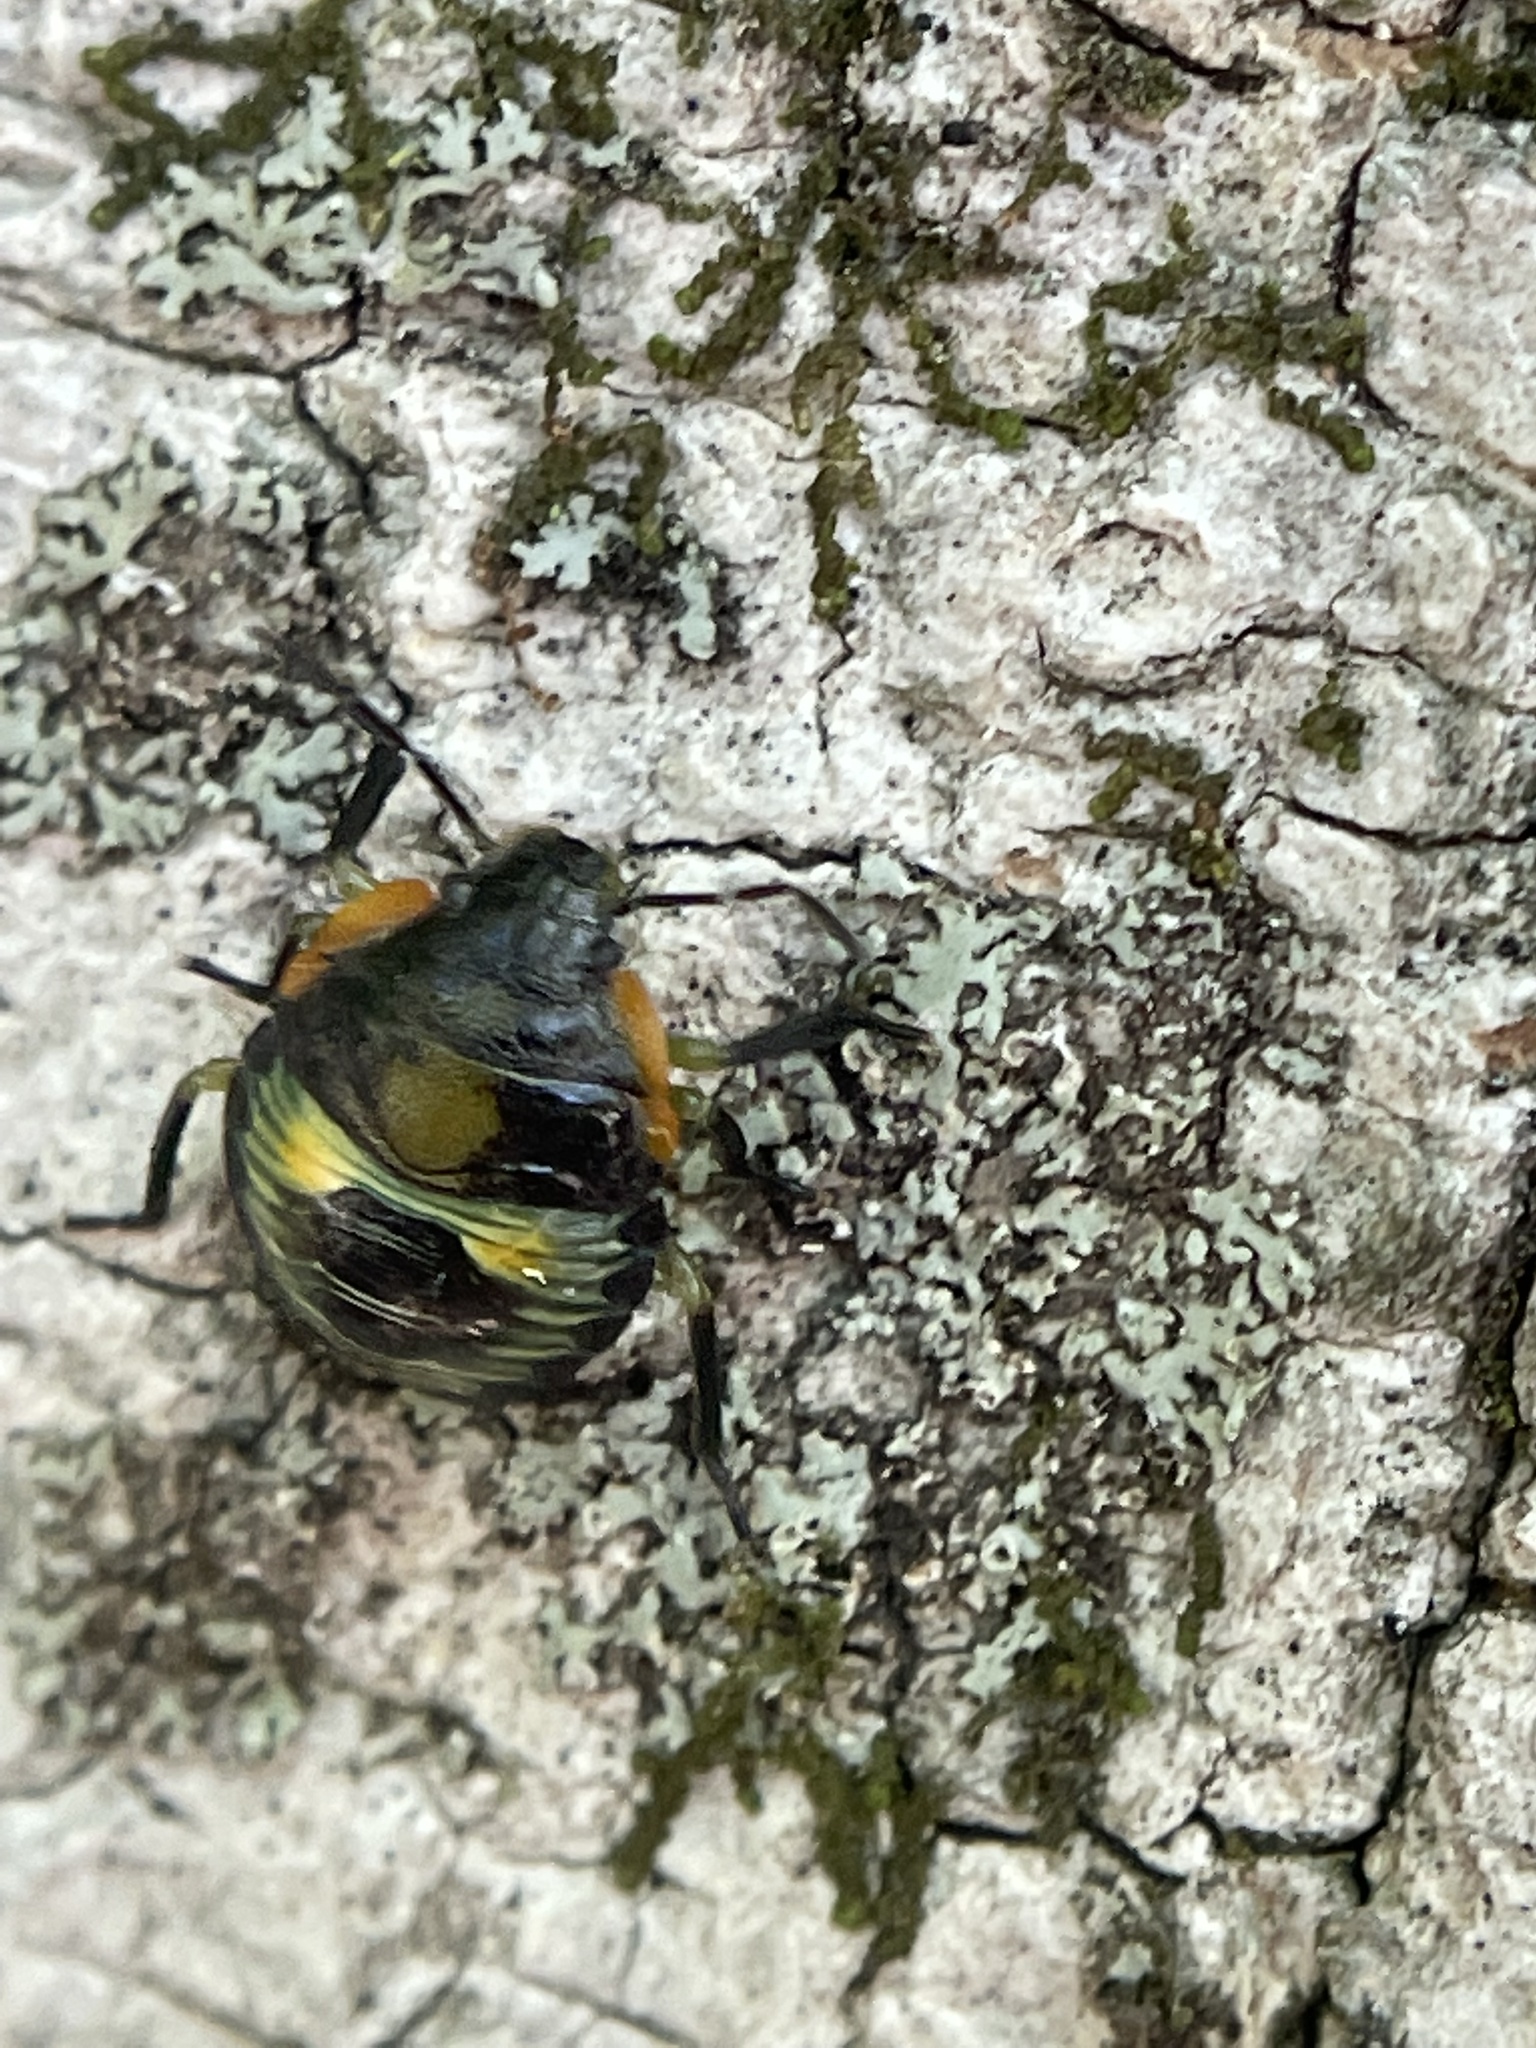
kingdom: Animalia
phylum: Arthropoda
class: Insecta
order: Hemiptera
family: Pentatomidae
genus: Chinavia
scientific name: Chinavia hilaris
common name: Green stink bug
